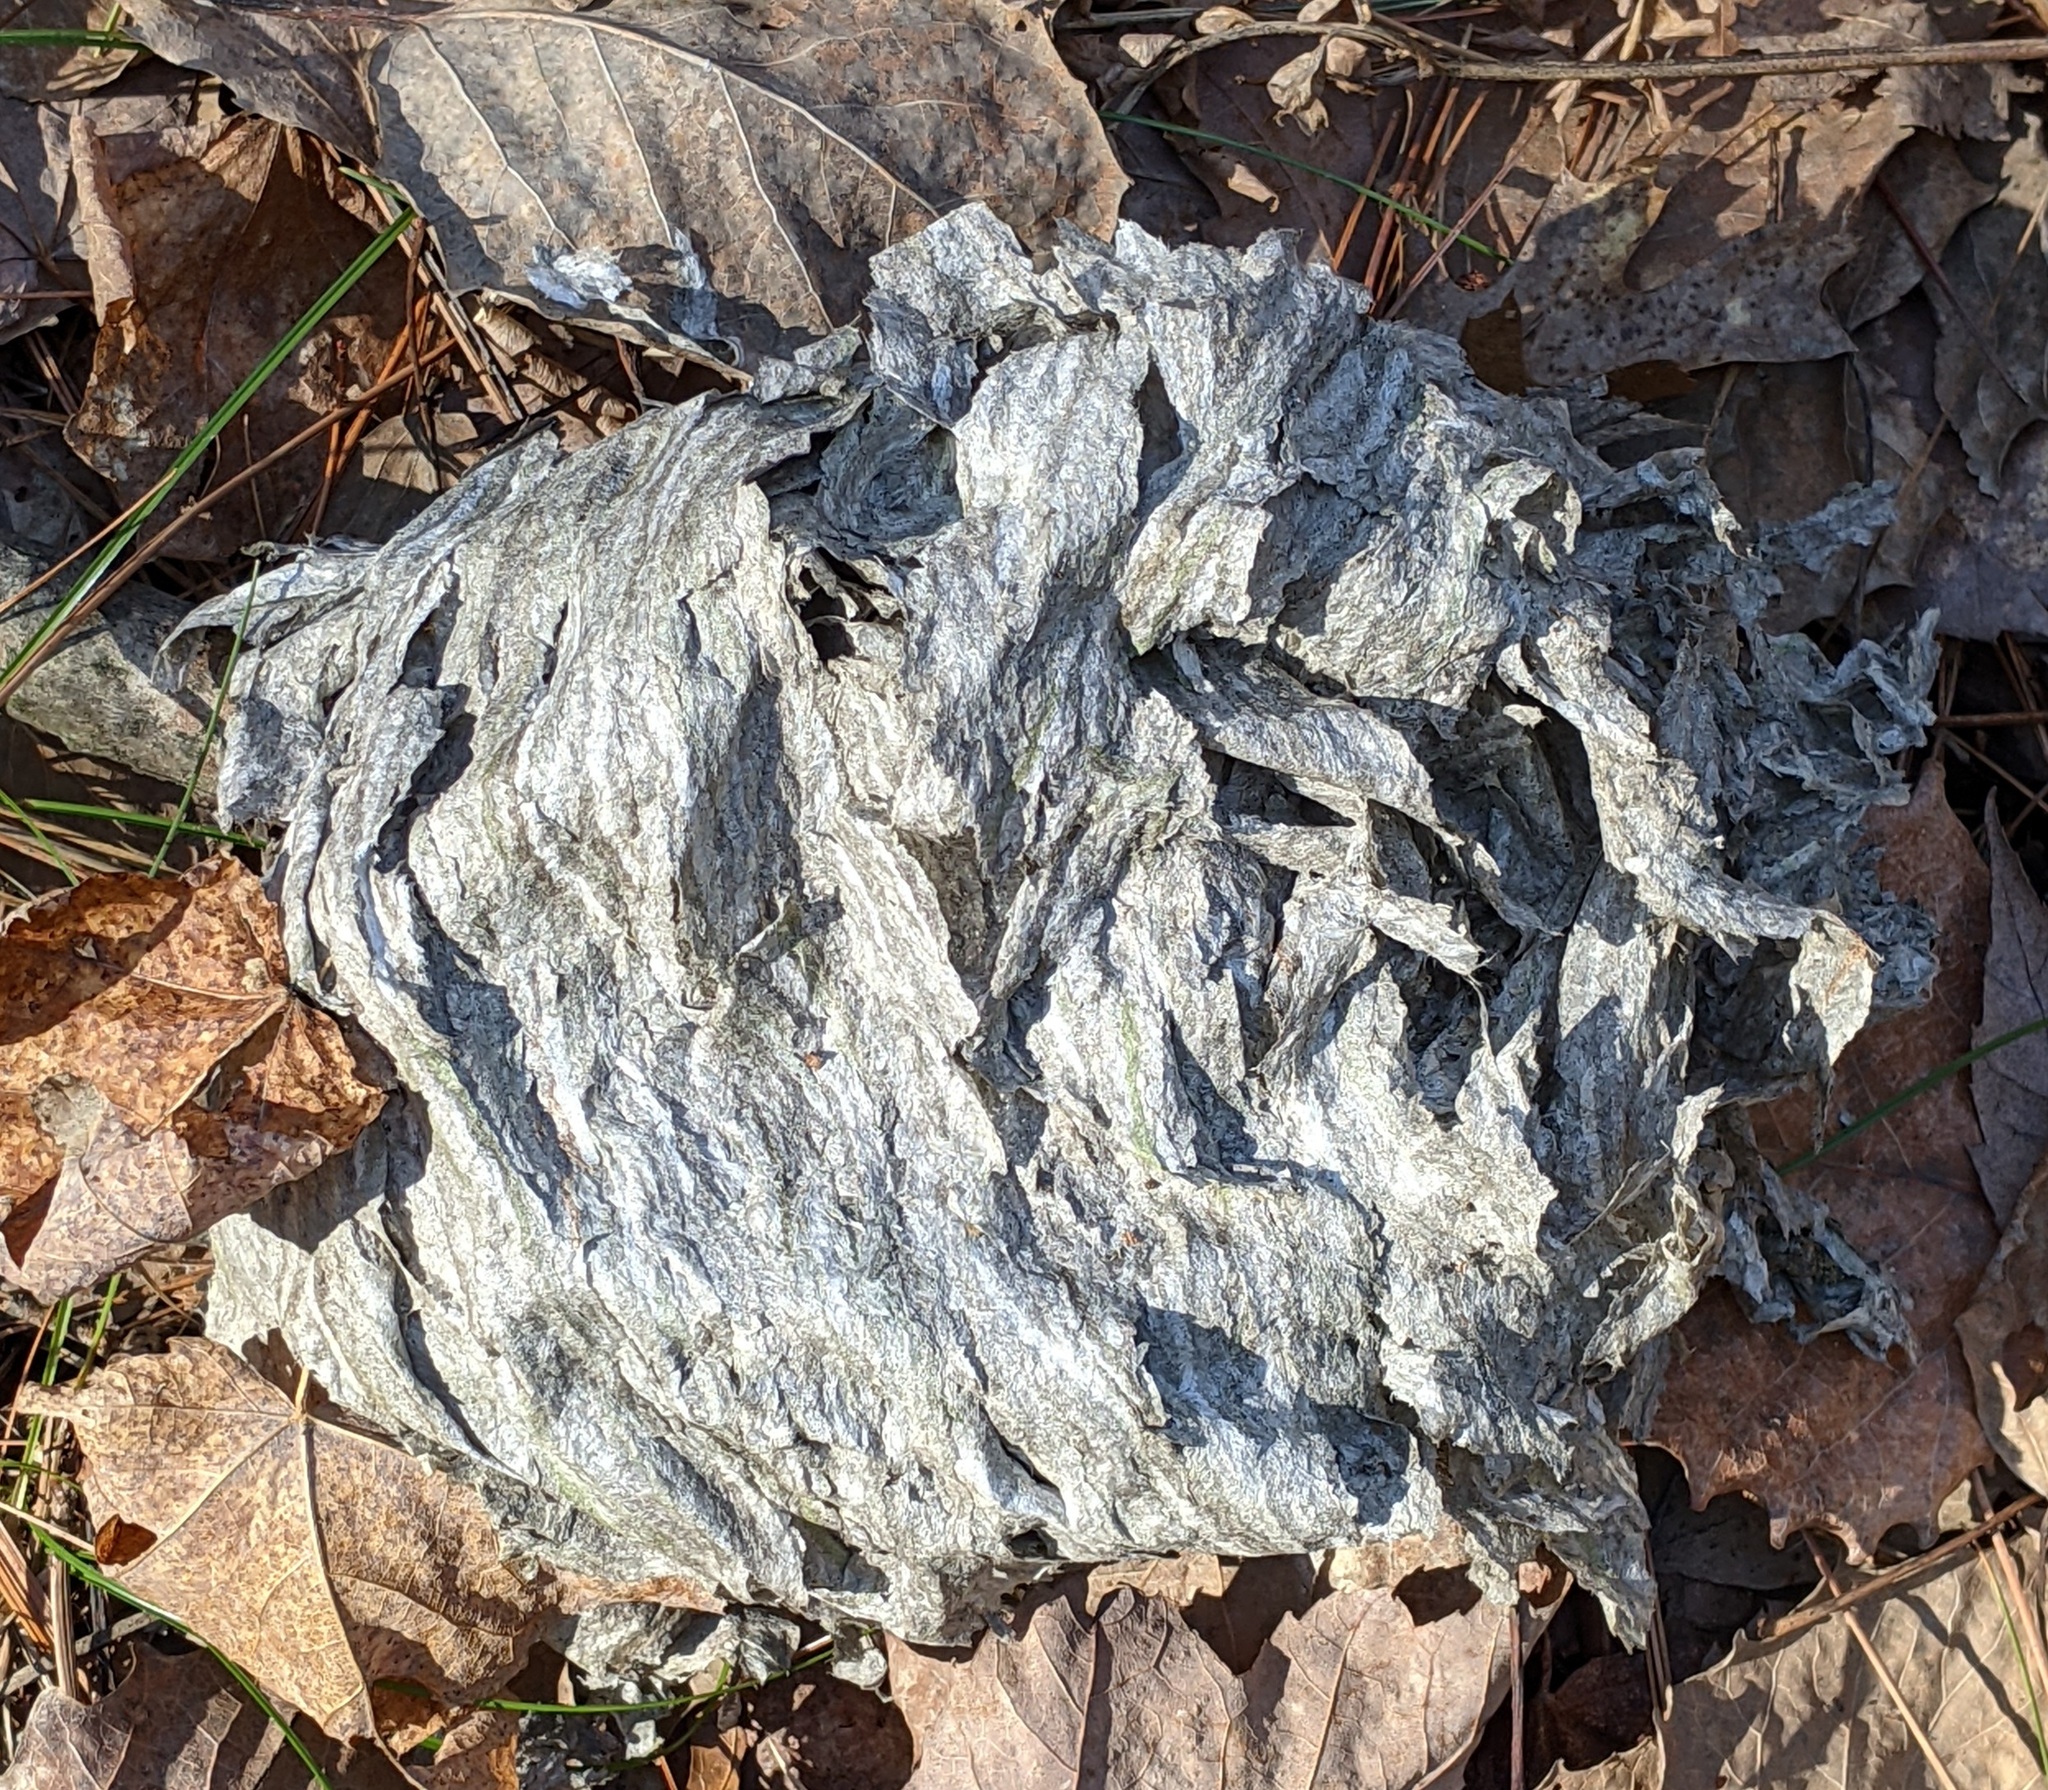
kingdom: Animalia
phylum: Arthropoda
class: Insecta
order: Hymenoptera
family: Vespidae
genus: Dolichovespula
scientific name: Dolichovespula
